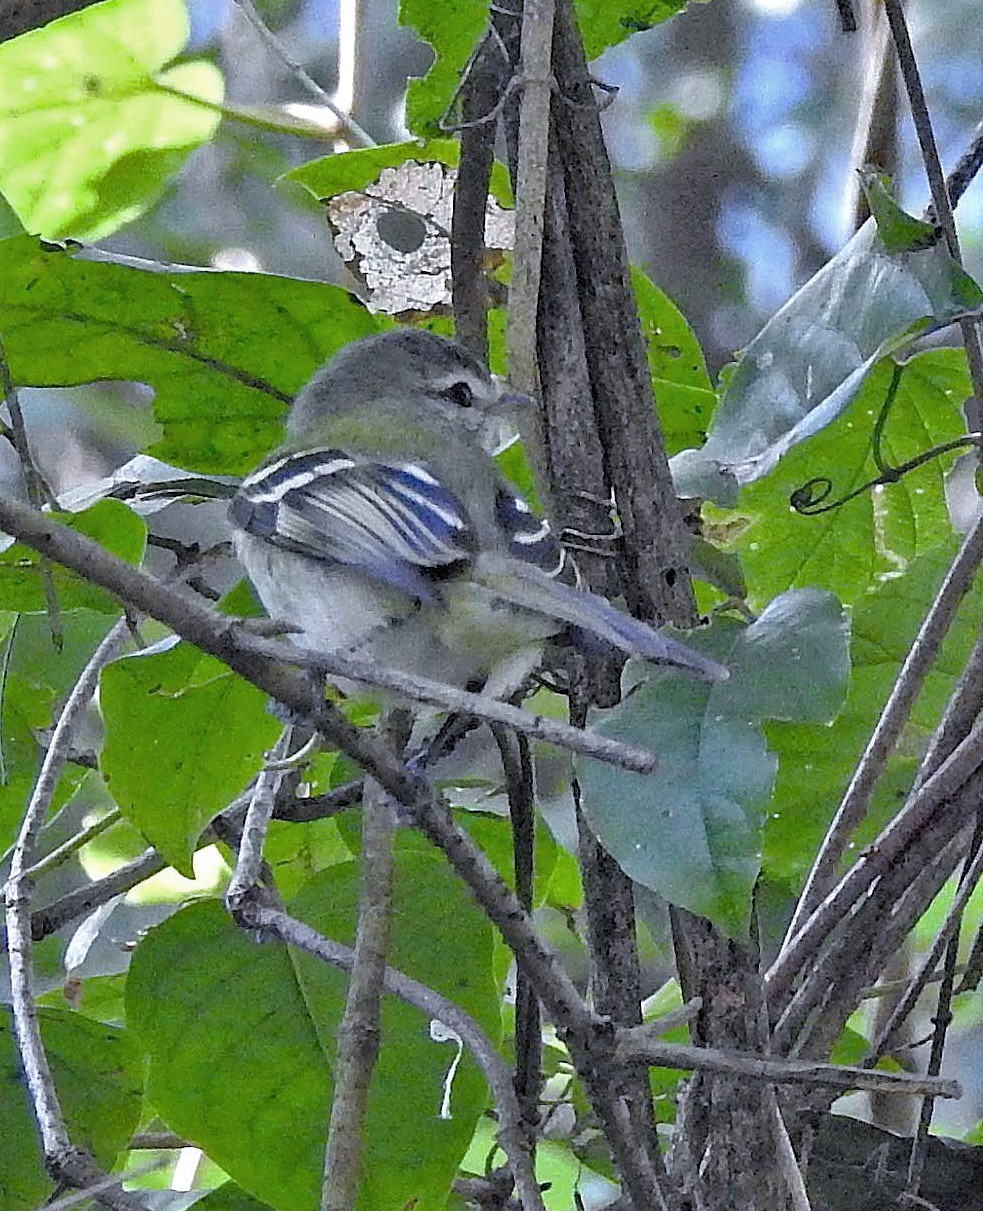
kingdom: Animalia
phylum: Chordata
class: Aves
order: Passeriformes
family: Tyrannidae
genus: Phyllomyias
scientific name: Phyllomyias sclateri
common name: Sclater's tyrannulet
